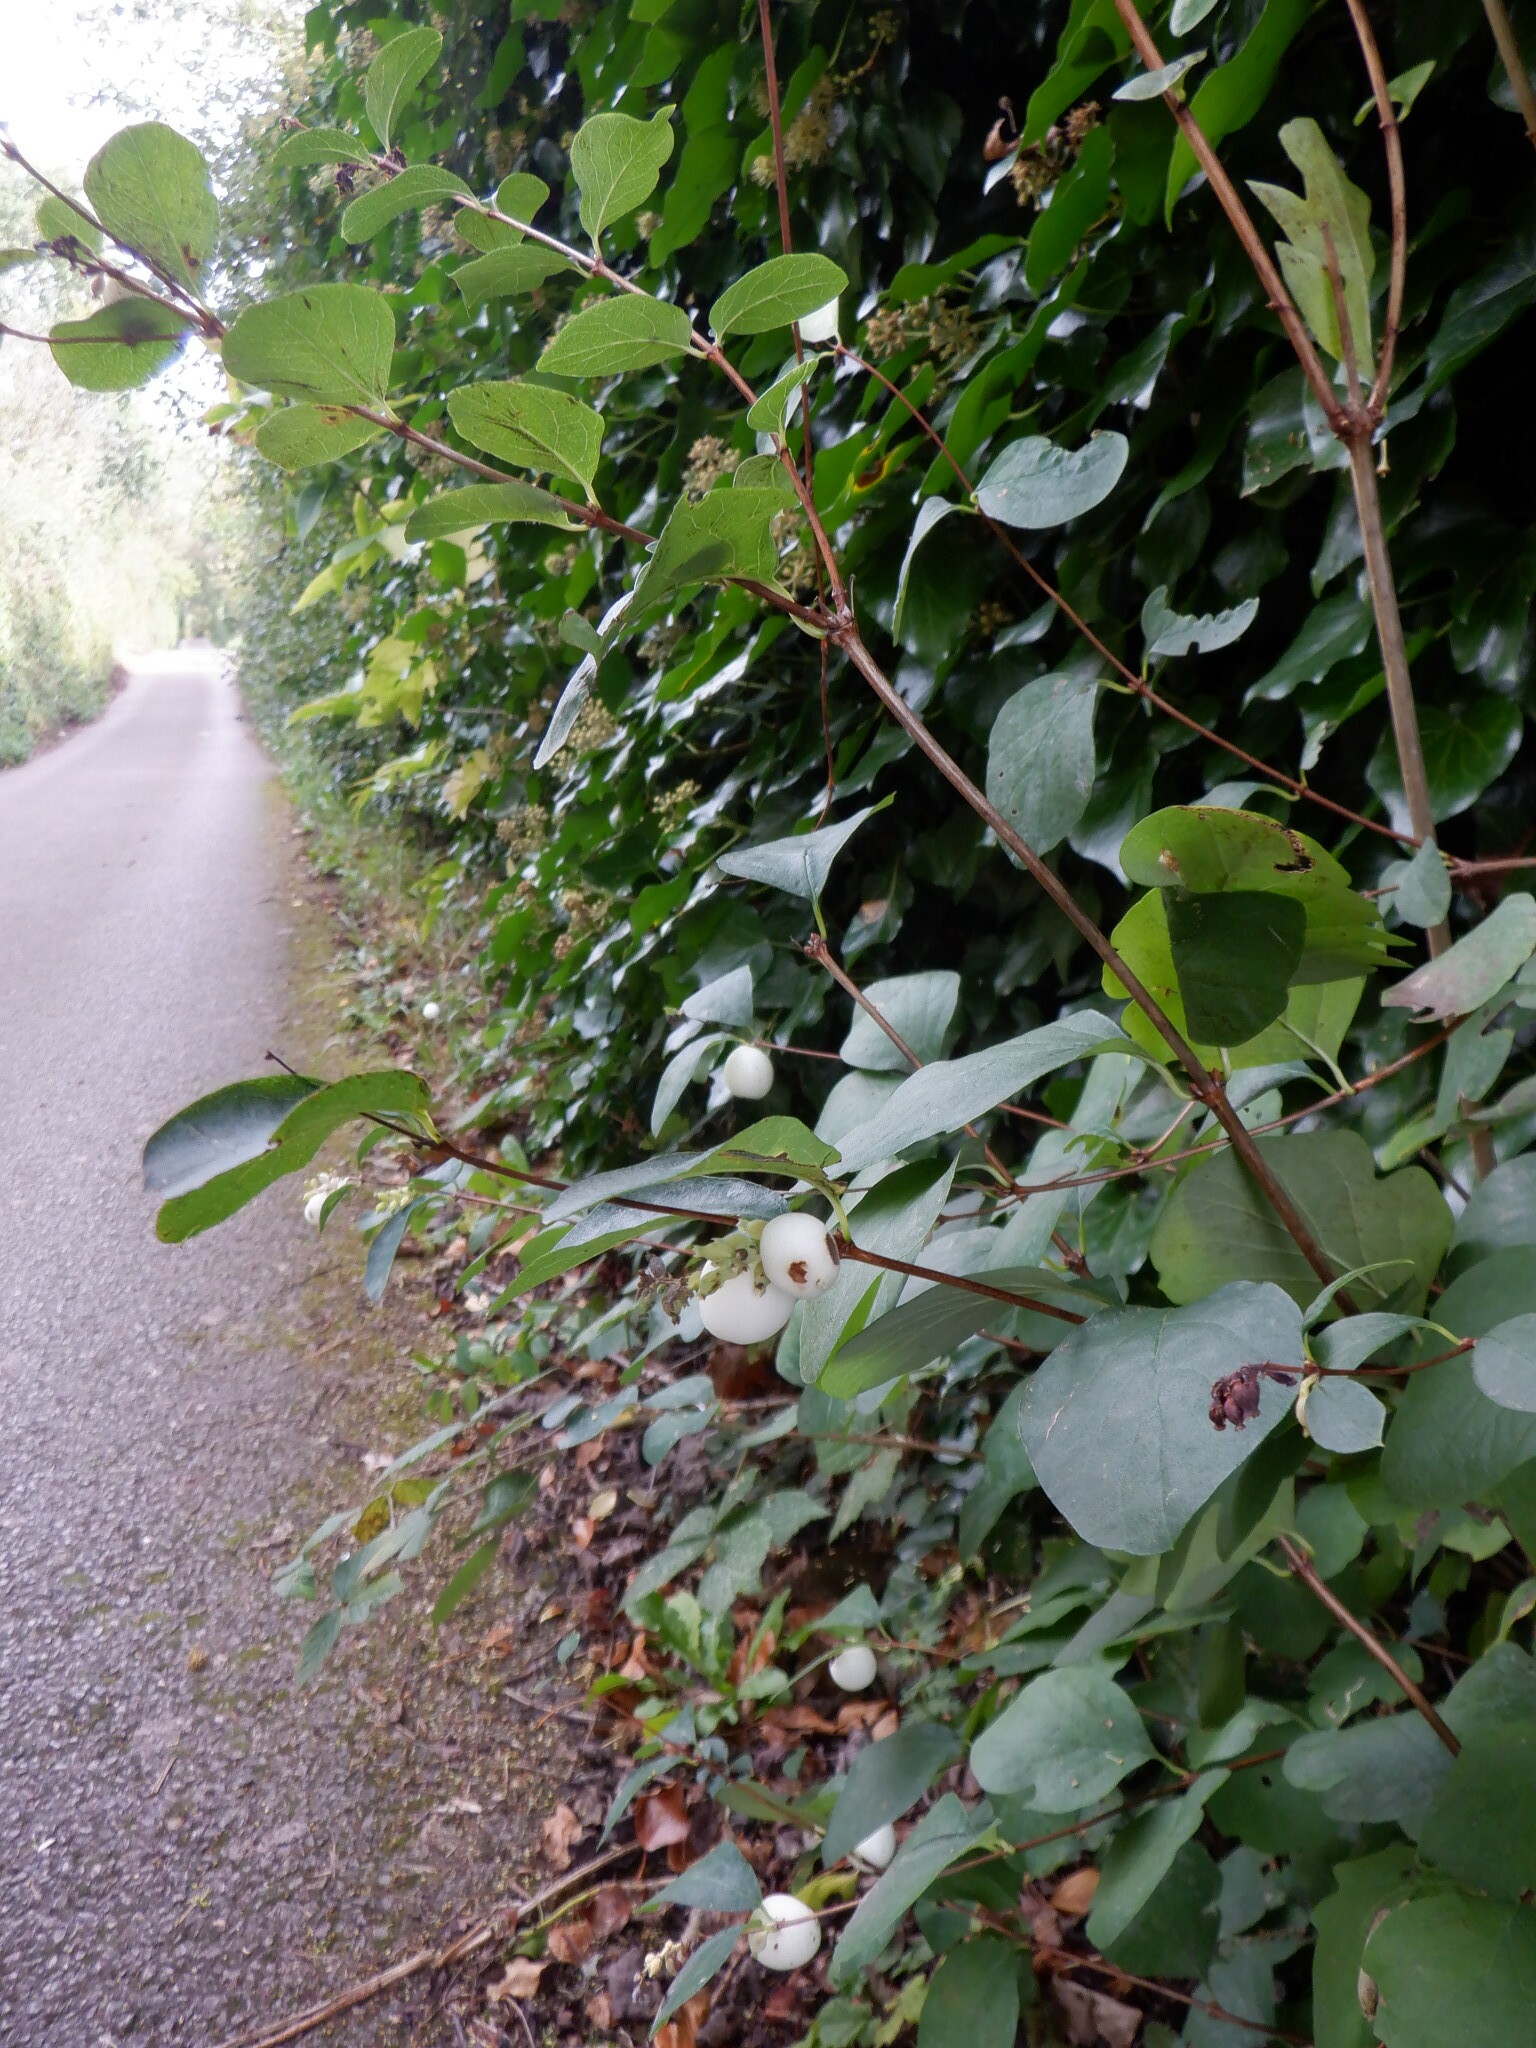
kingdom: Plantae
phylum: Tracheophyta
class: Magnoliopsida
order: Dipsacales
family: Caprifoliaceae
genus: Symphoricarpos
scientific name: Symphoricarpos albus
